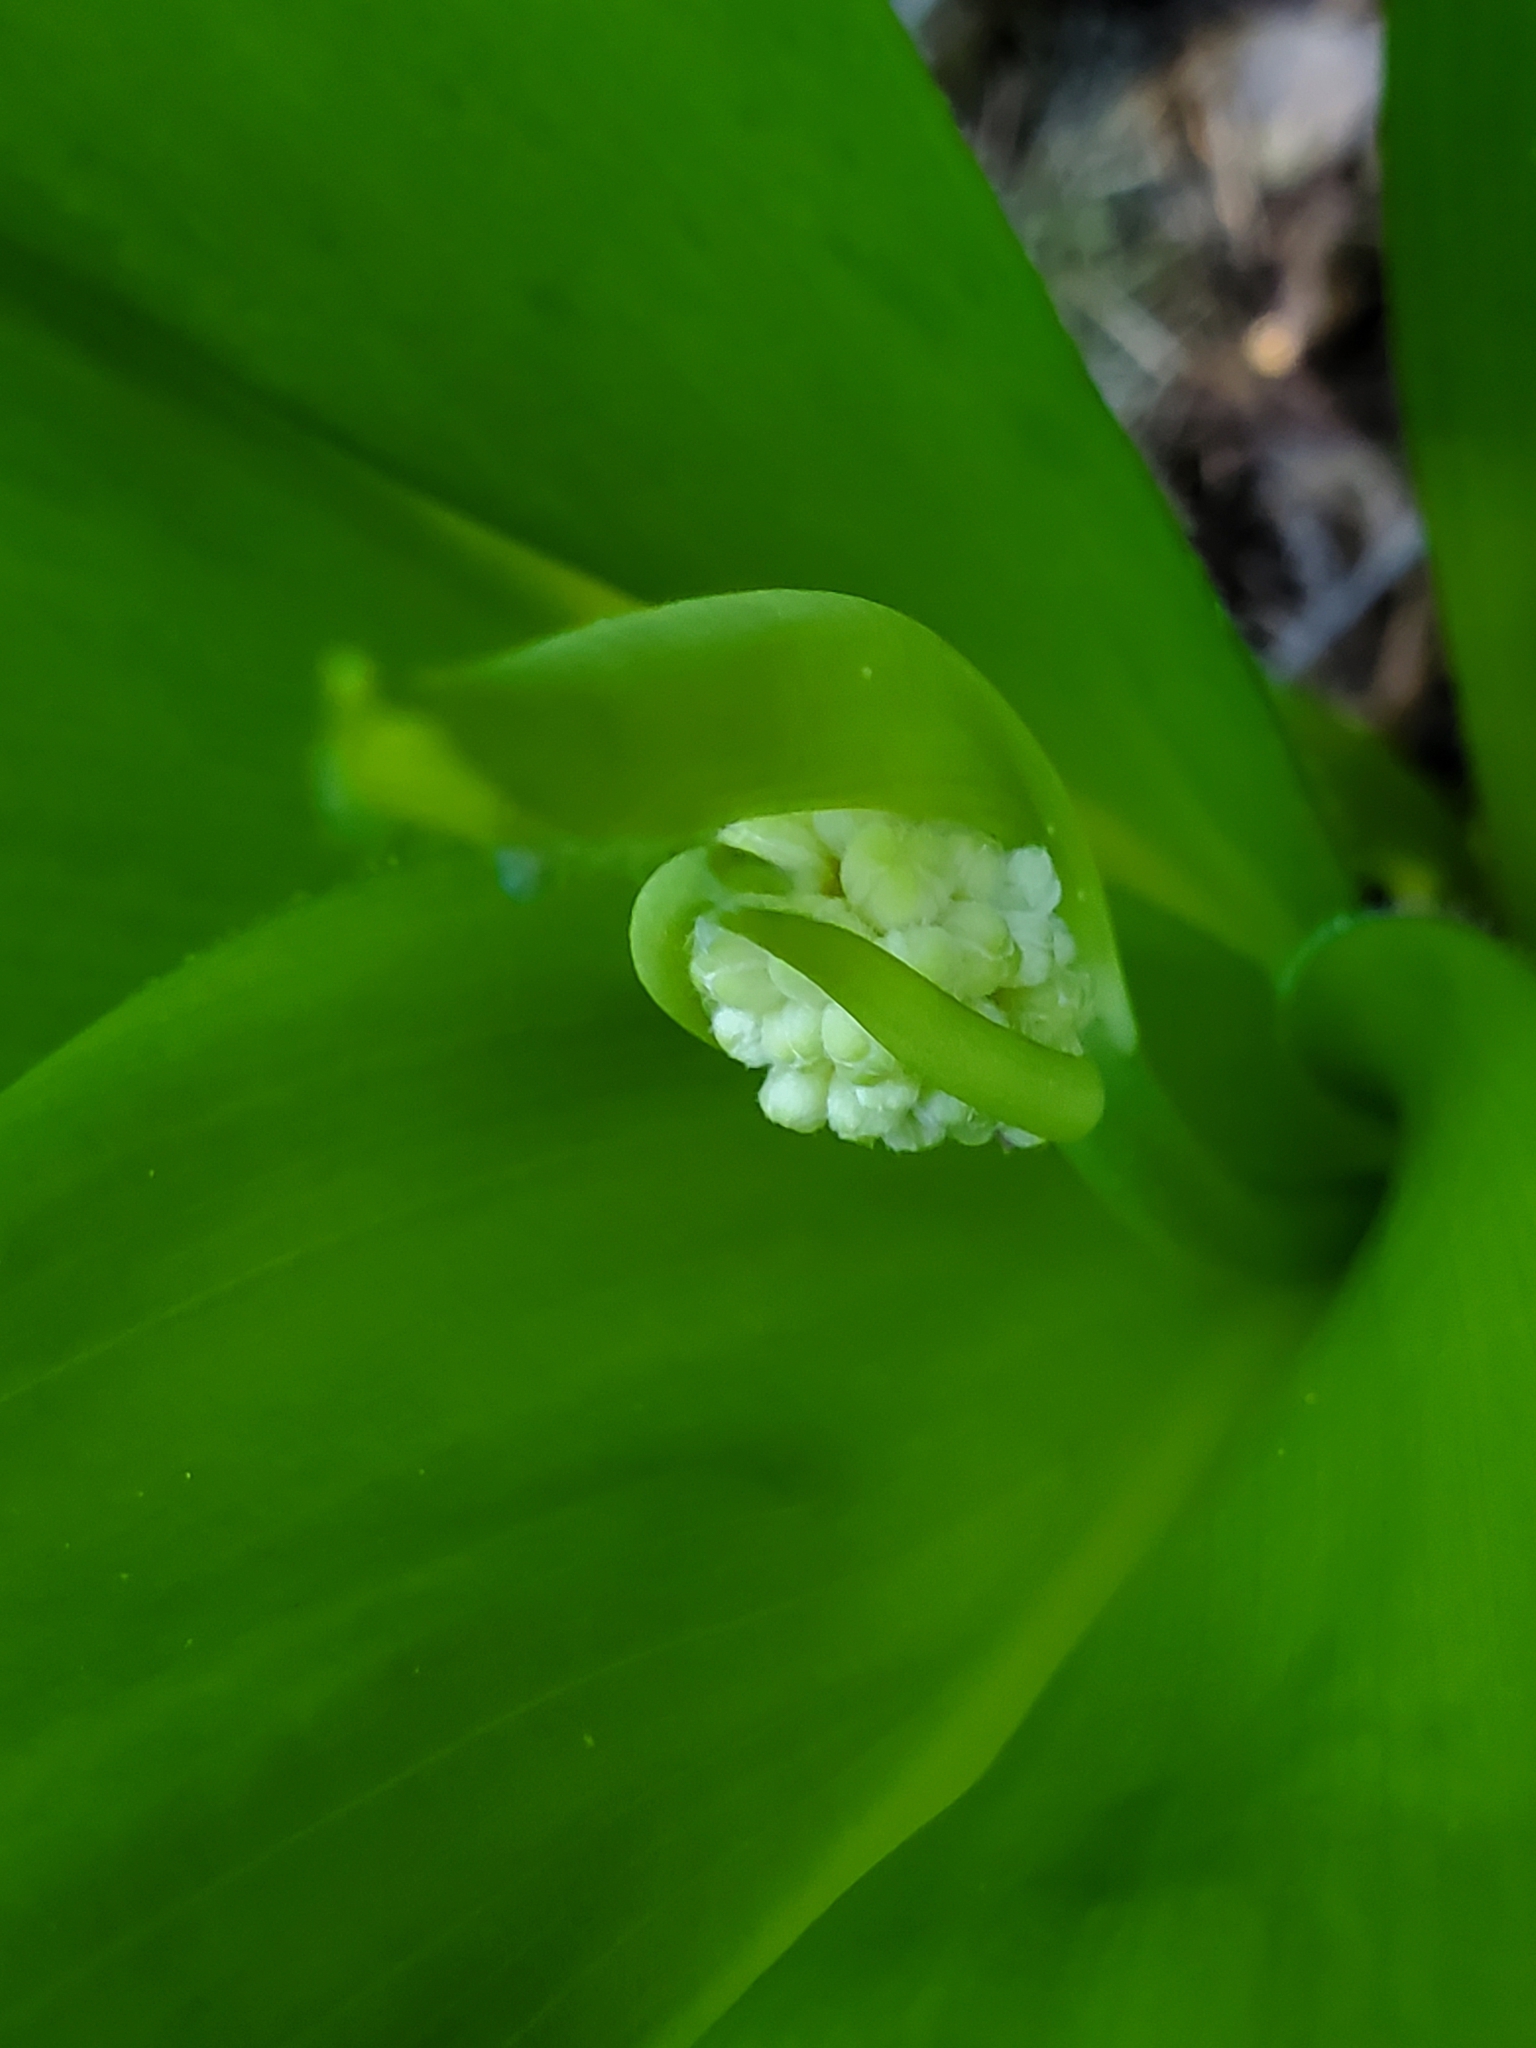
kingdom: Plantae
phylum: Tracheophyta
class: Liliopsida
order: Liliales
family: Liliaceae
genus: Clintonia
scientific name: Clintonia andrewsiana
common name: Red clintonia
